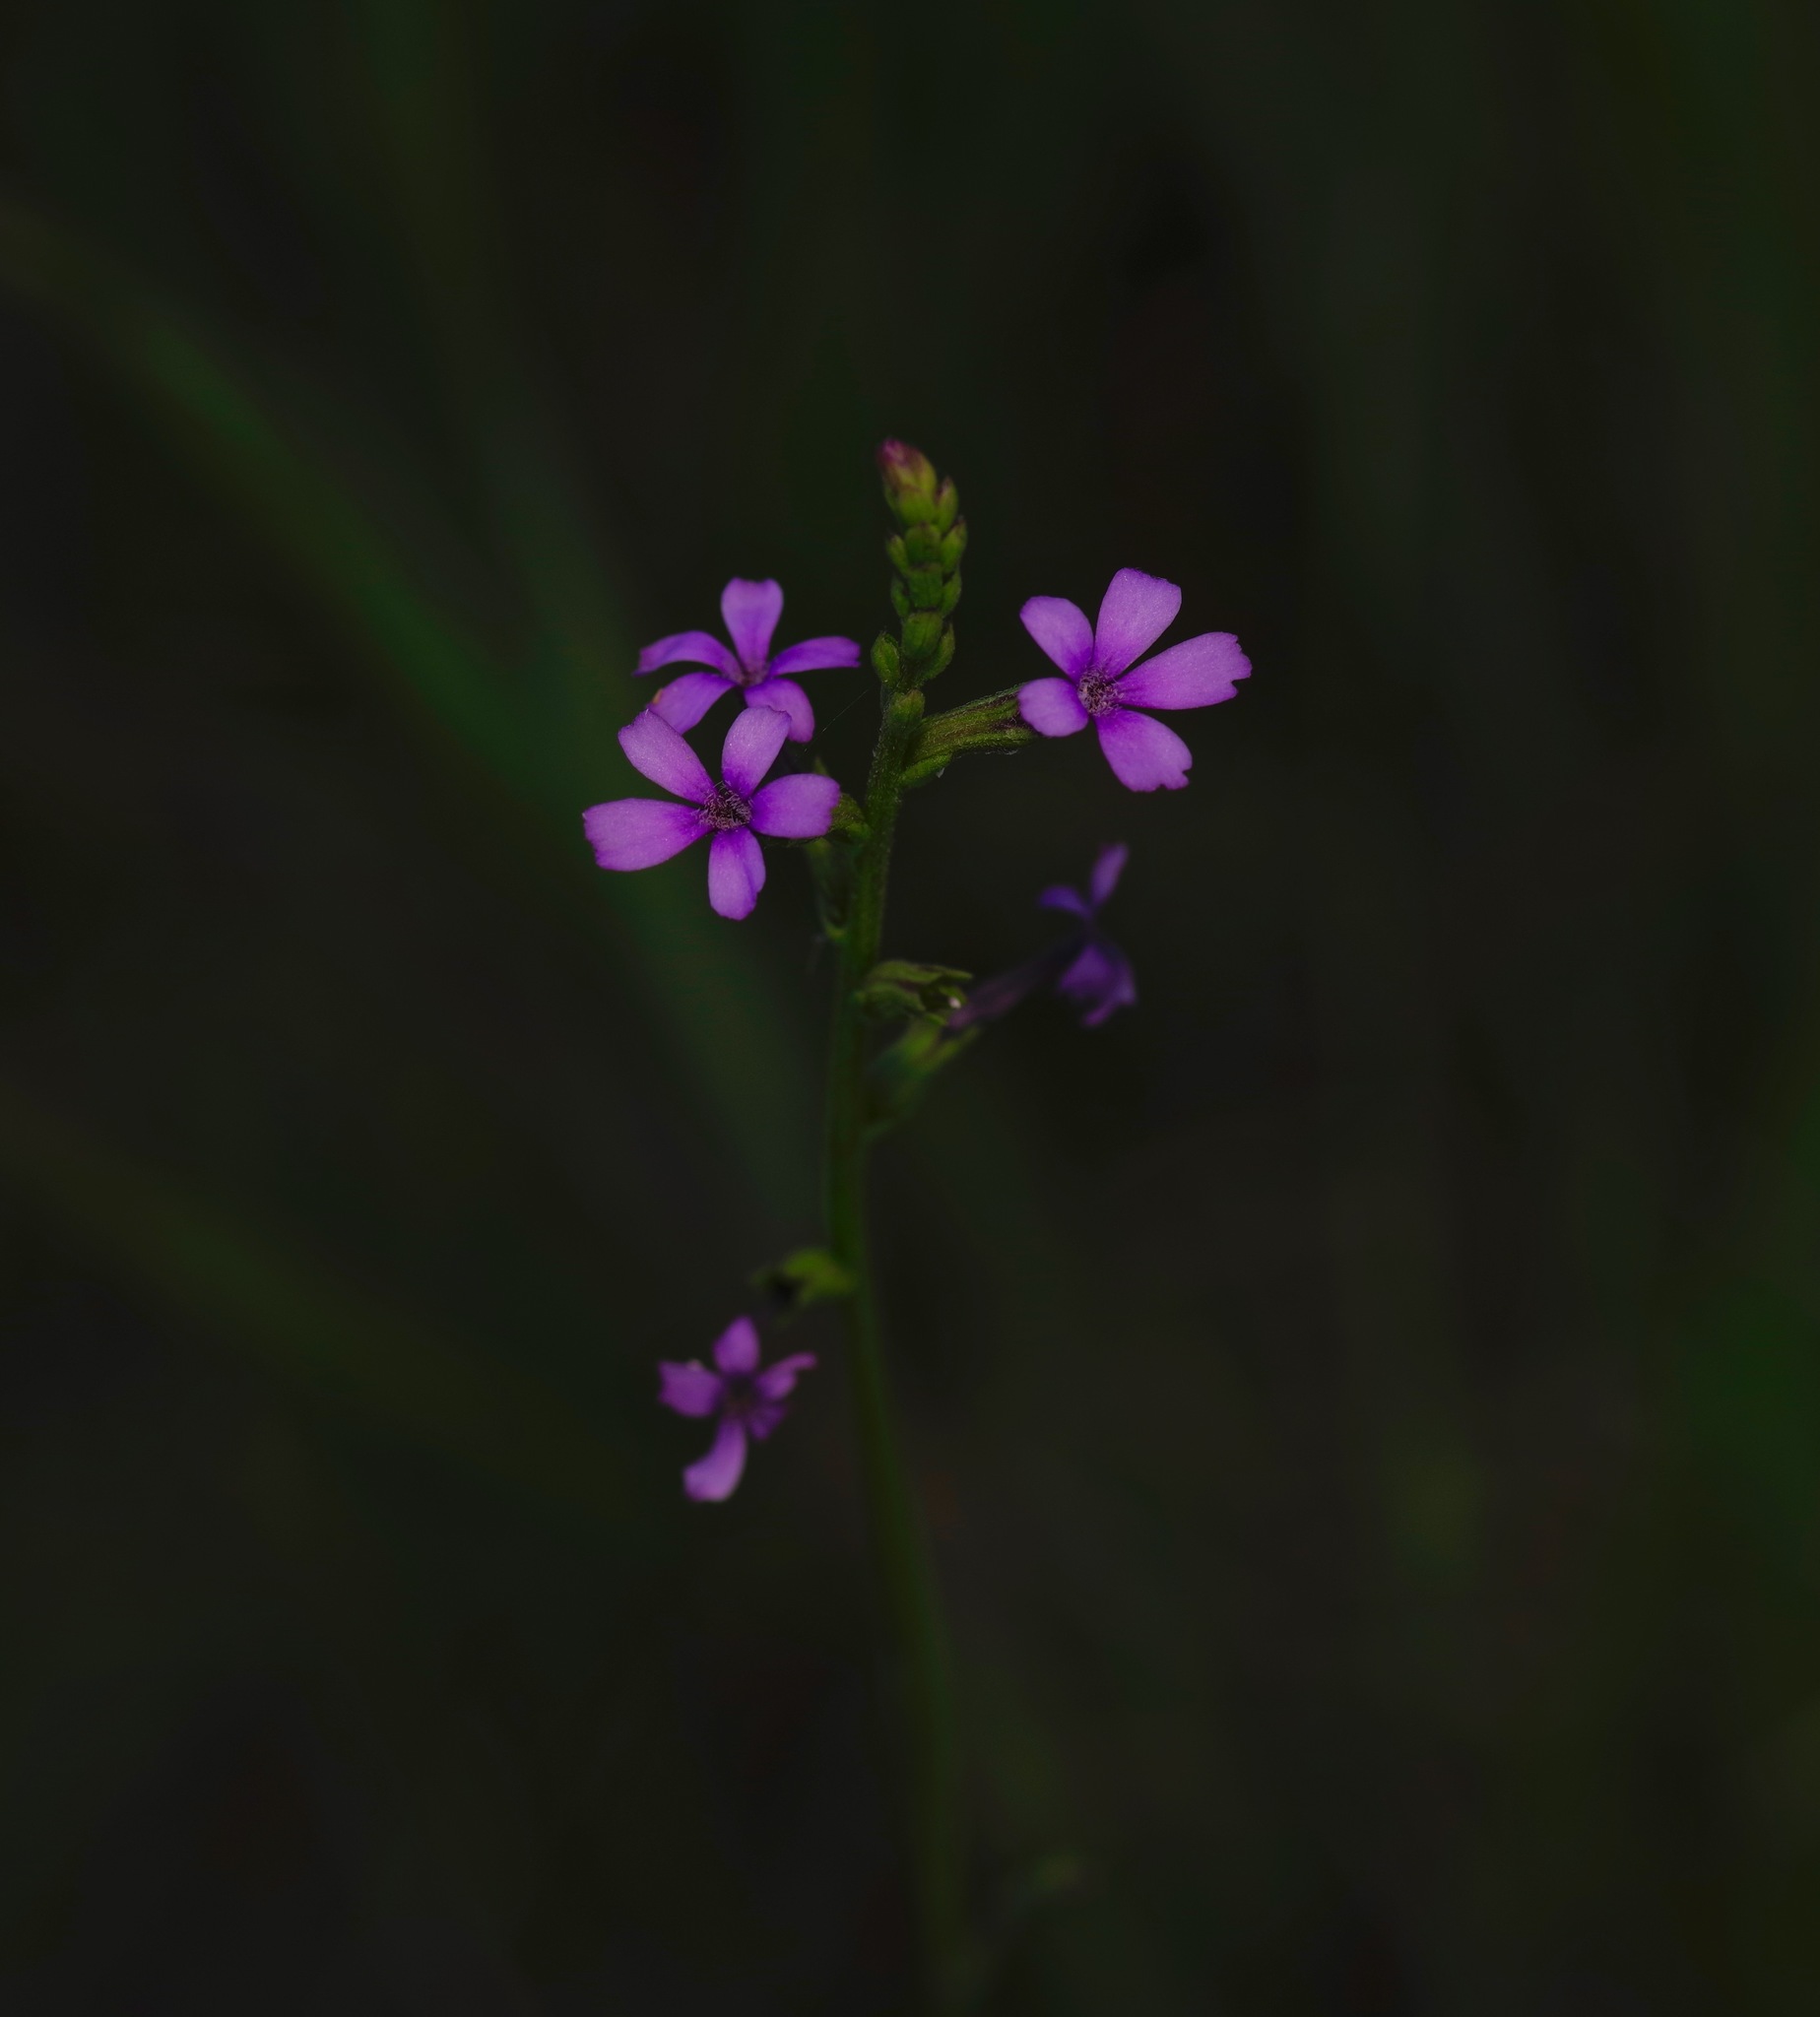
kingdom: Plantae
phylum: Tracheophyta
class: Magnoliopsida
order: Lamiales
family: Orobanchaceae
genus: Buchnera
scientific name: Buchnera floridana
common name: Florida bluehearts
